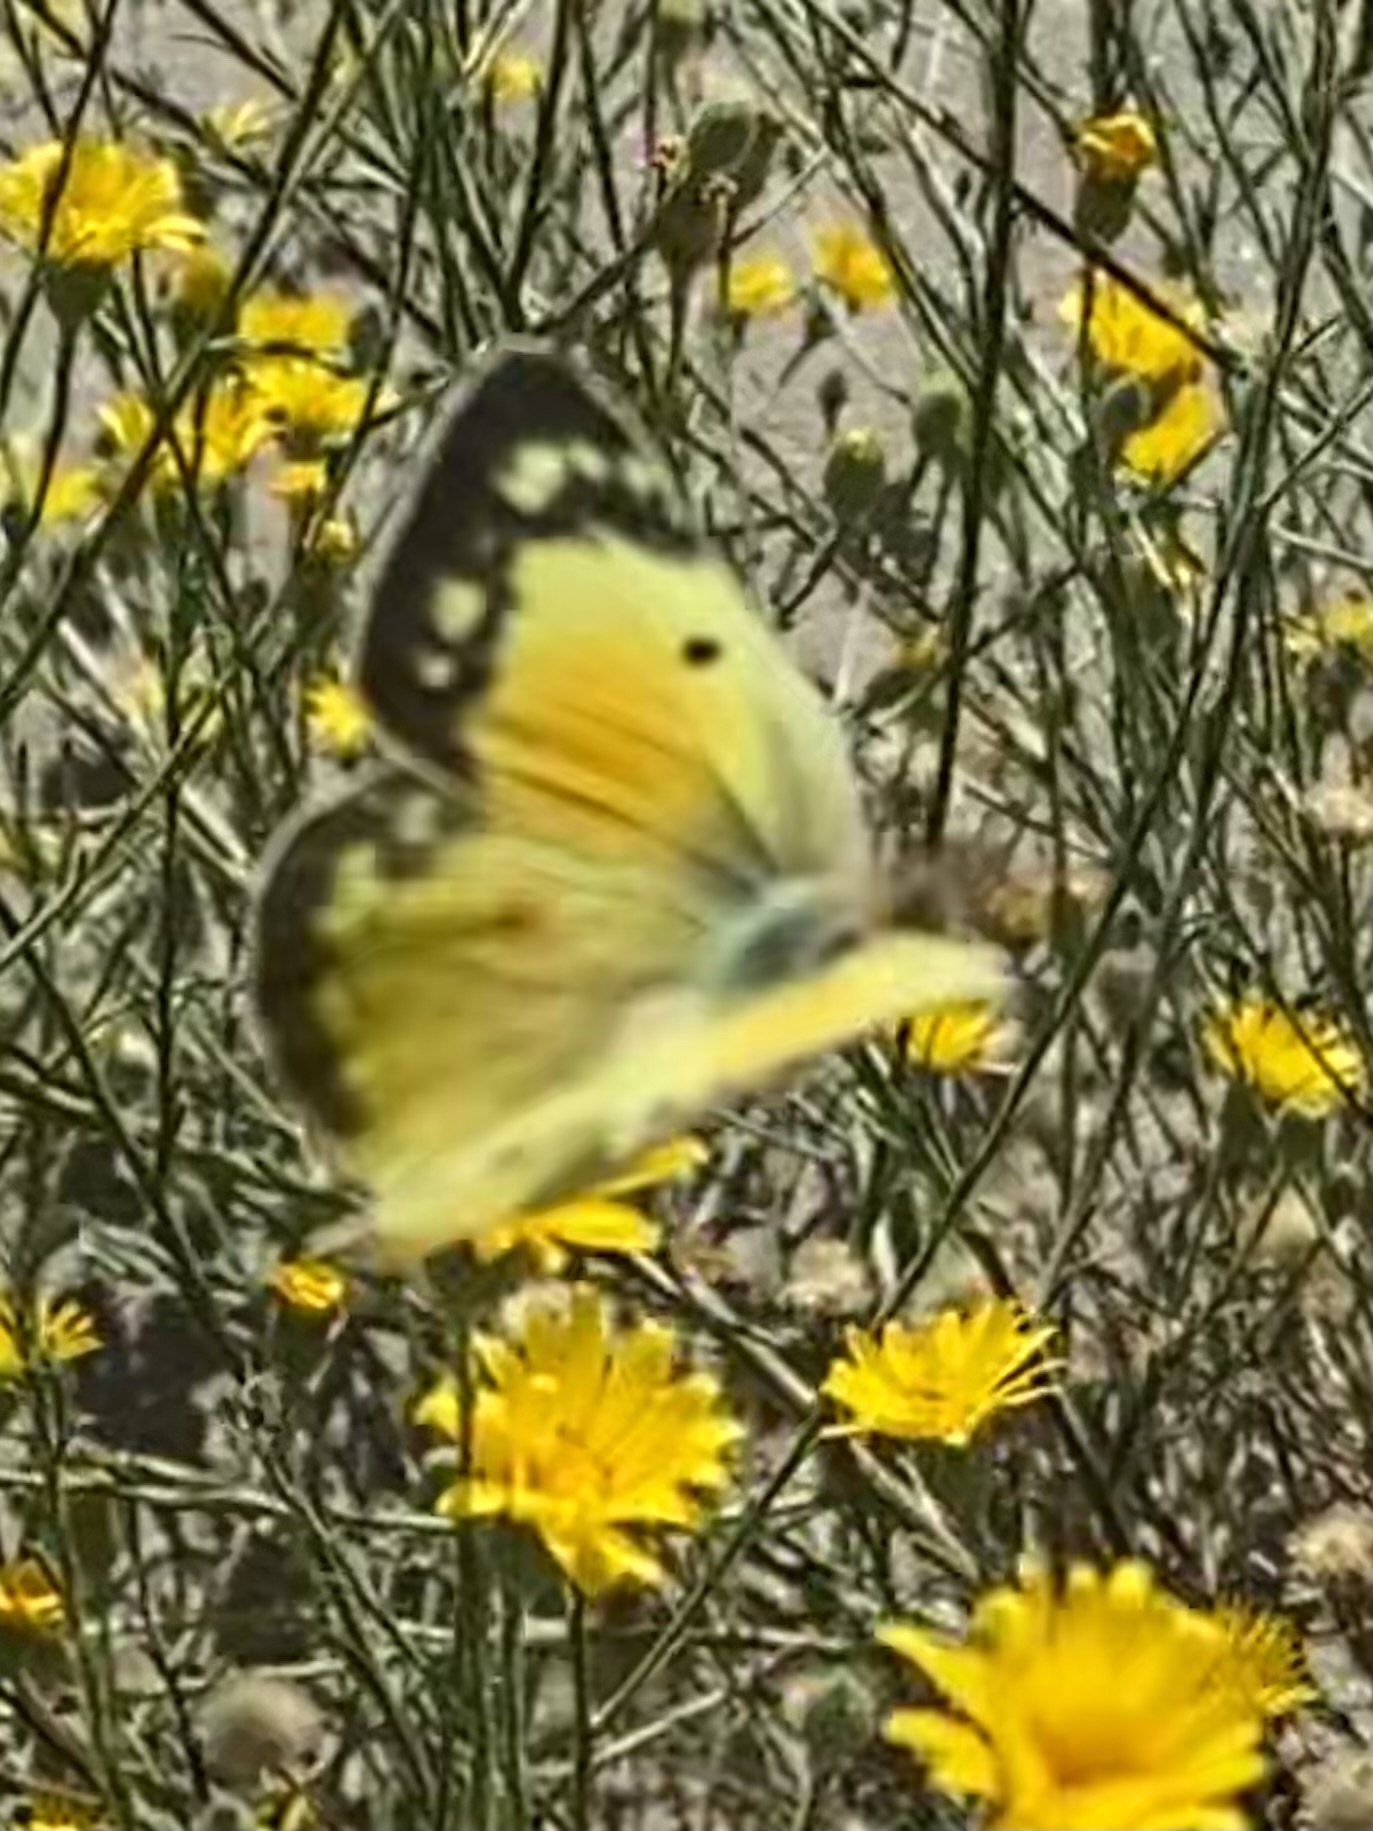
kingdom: Animalia
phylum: Arthropoda
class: Insecta
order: Lepidoptera
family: Pieridae
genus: Colias
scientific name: Colias eurytheme
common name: Alfalfa butterfly
